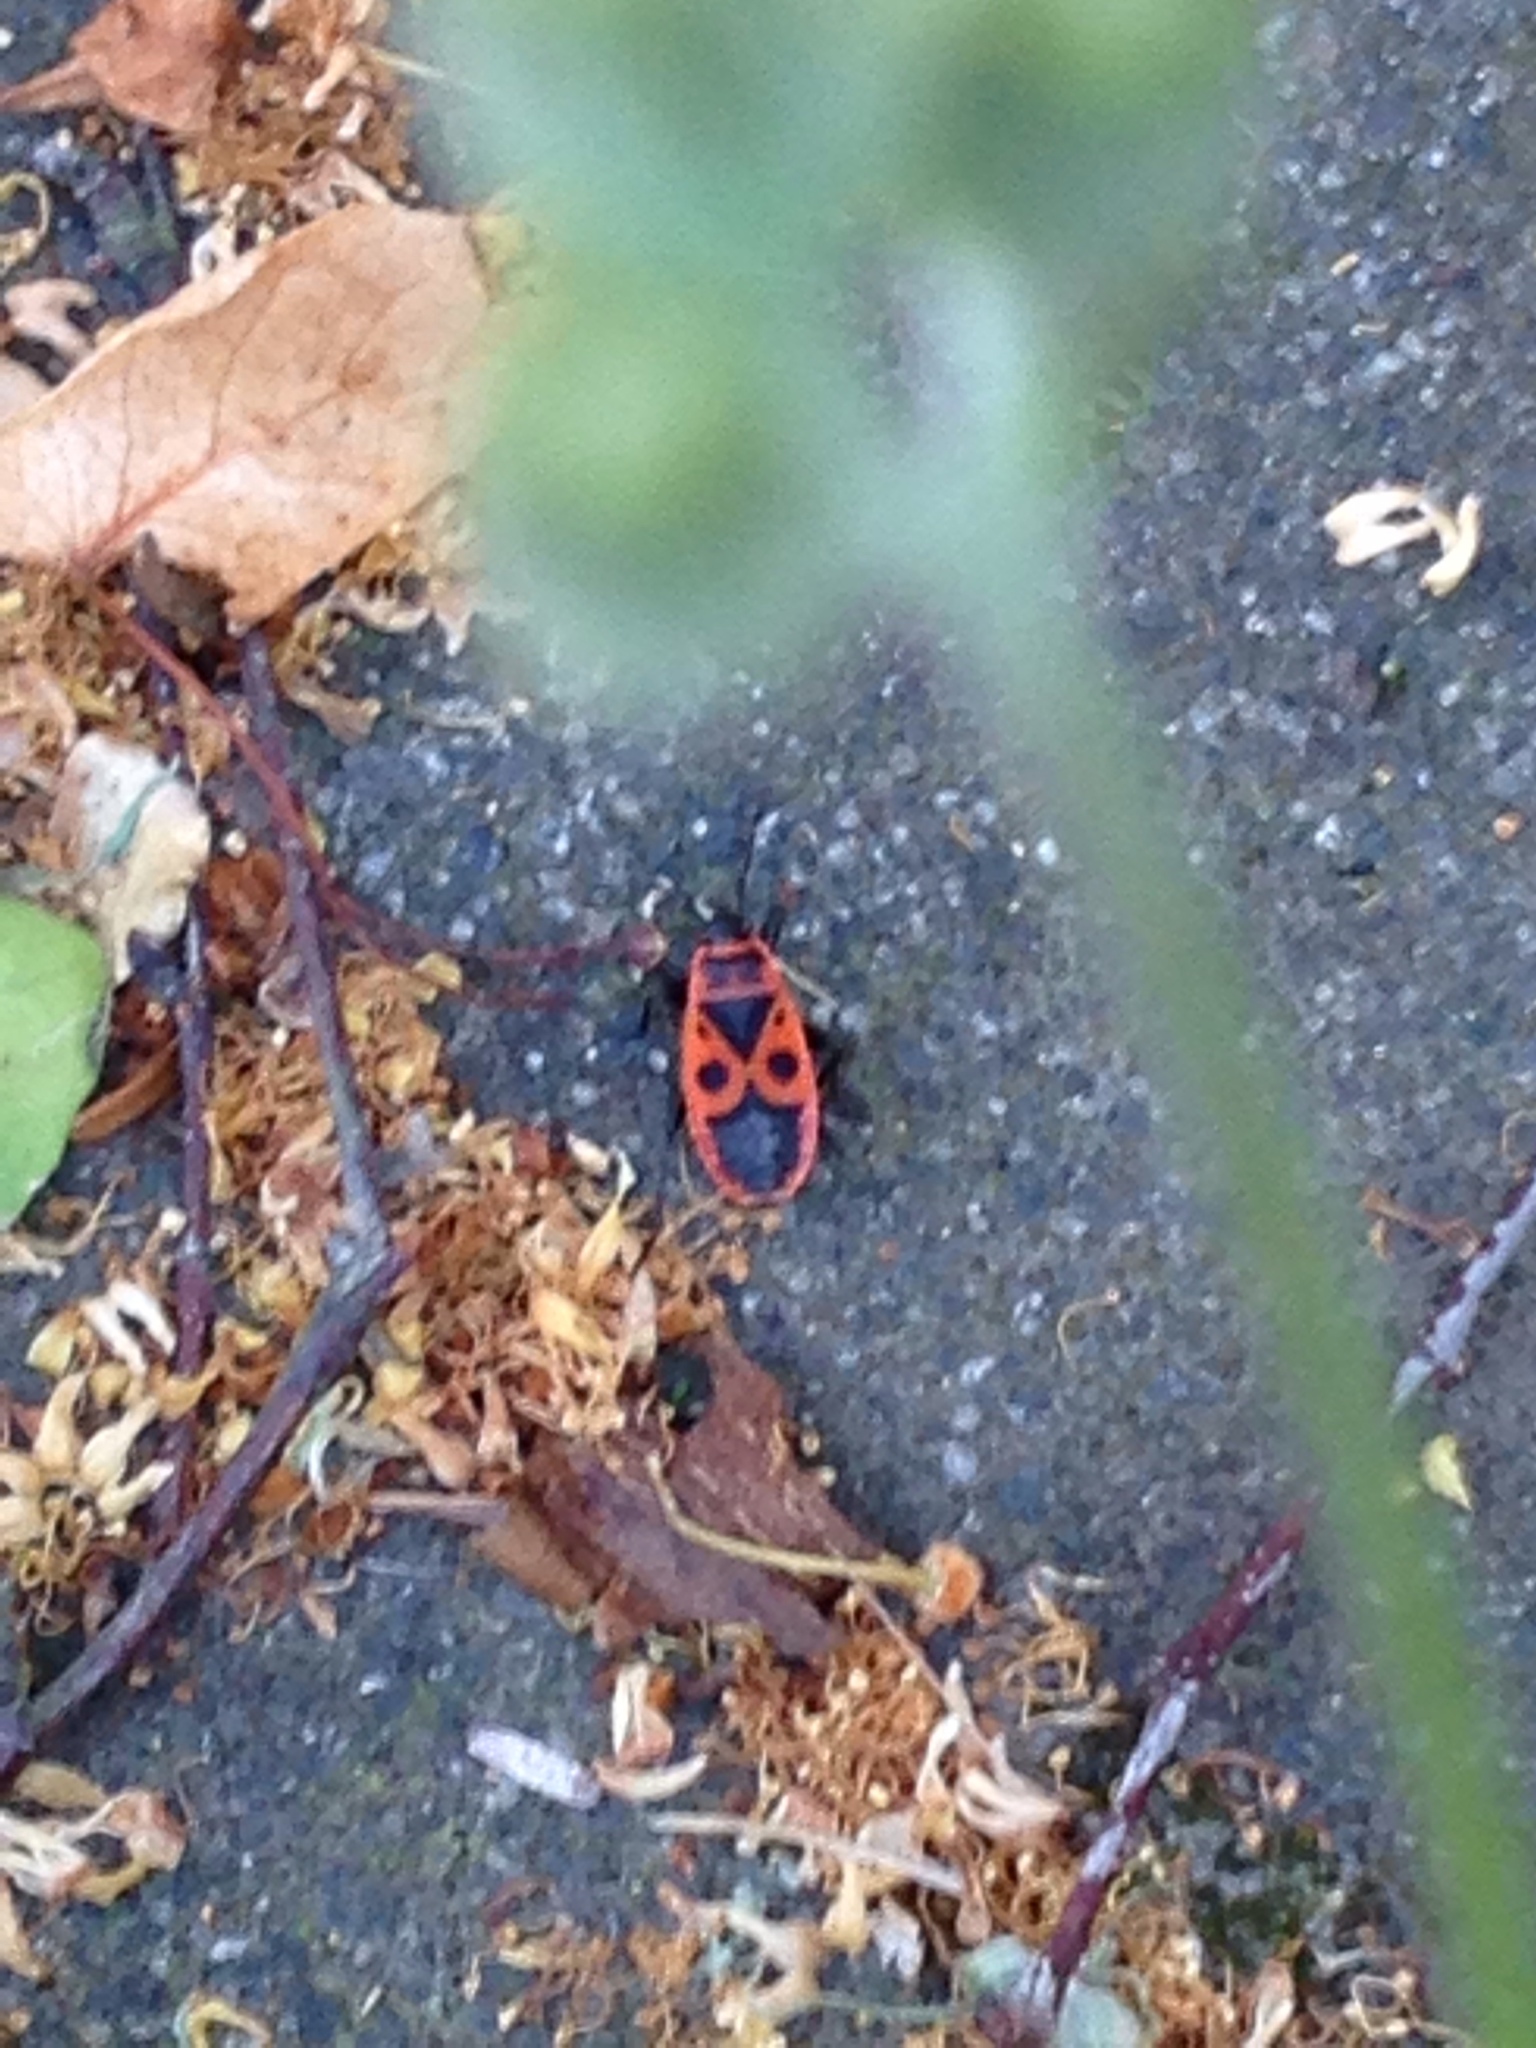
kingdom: Animalia
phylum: Arthropoda
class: Insecta
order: Hemiptera
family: Pyrrhocoridae
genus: Pyrrhocoris
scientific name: Pyrrhocoris apterus
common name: Firebug
